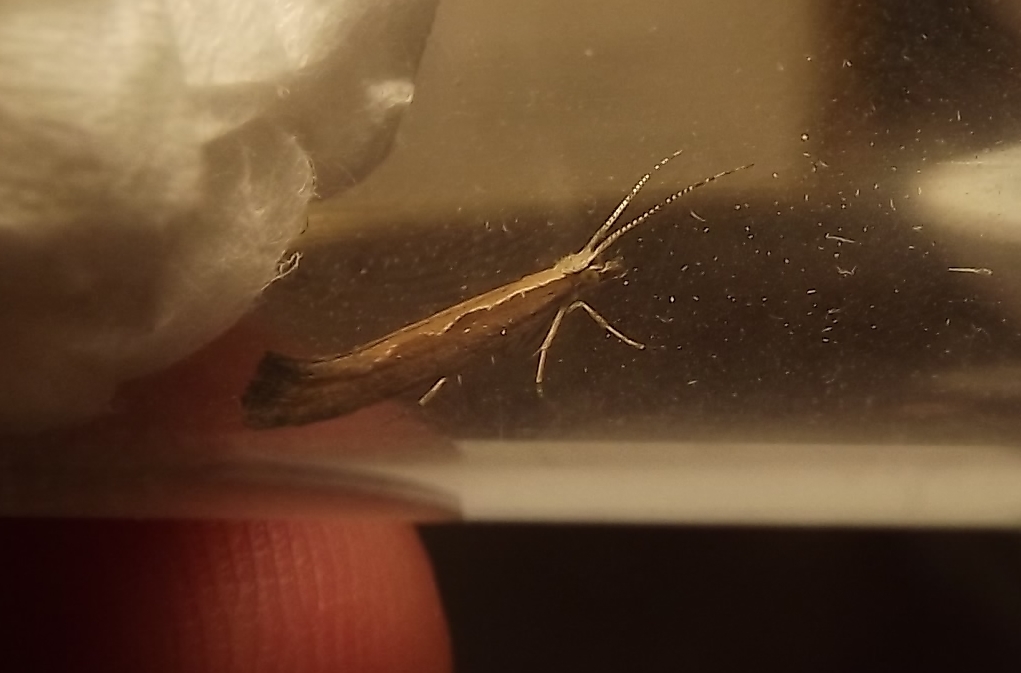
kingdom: Animalia
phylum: Arthropoda
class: Insecta
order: Lepidoptera
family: Plutellidae
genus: Plutella
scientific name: Plutella xylostella
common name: Diamond-back moth
